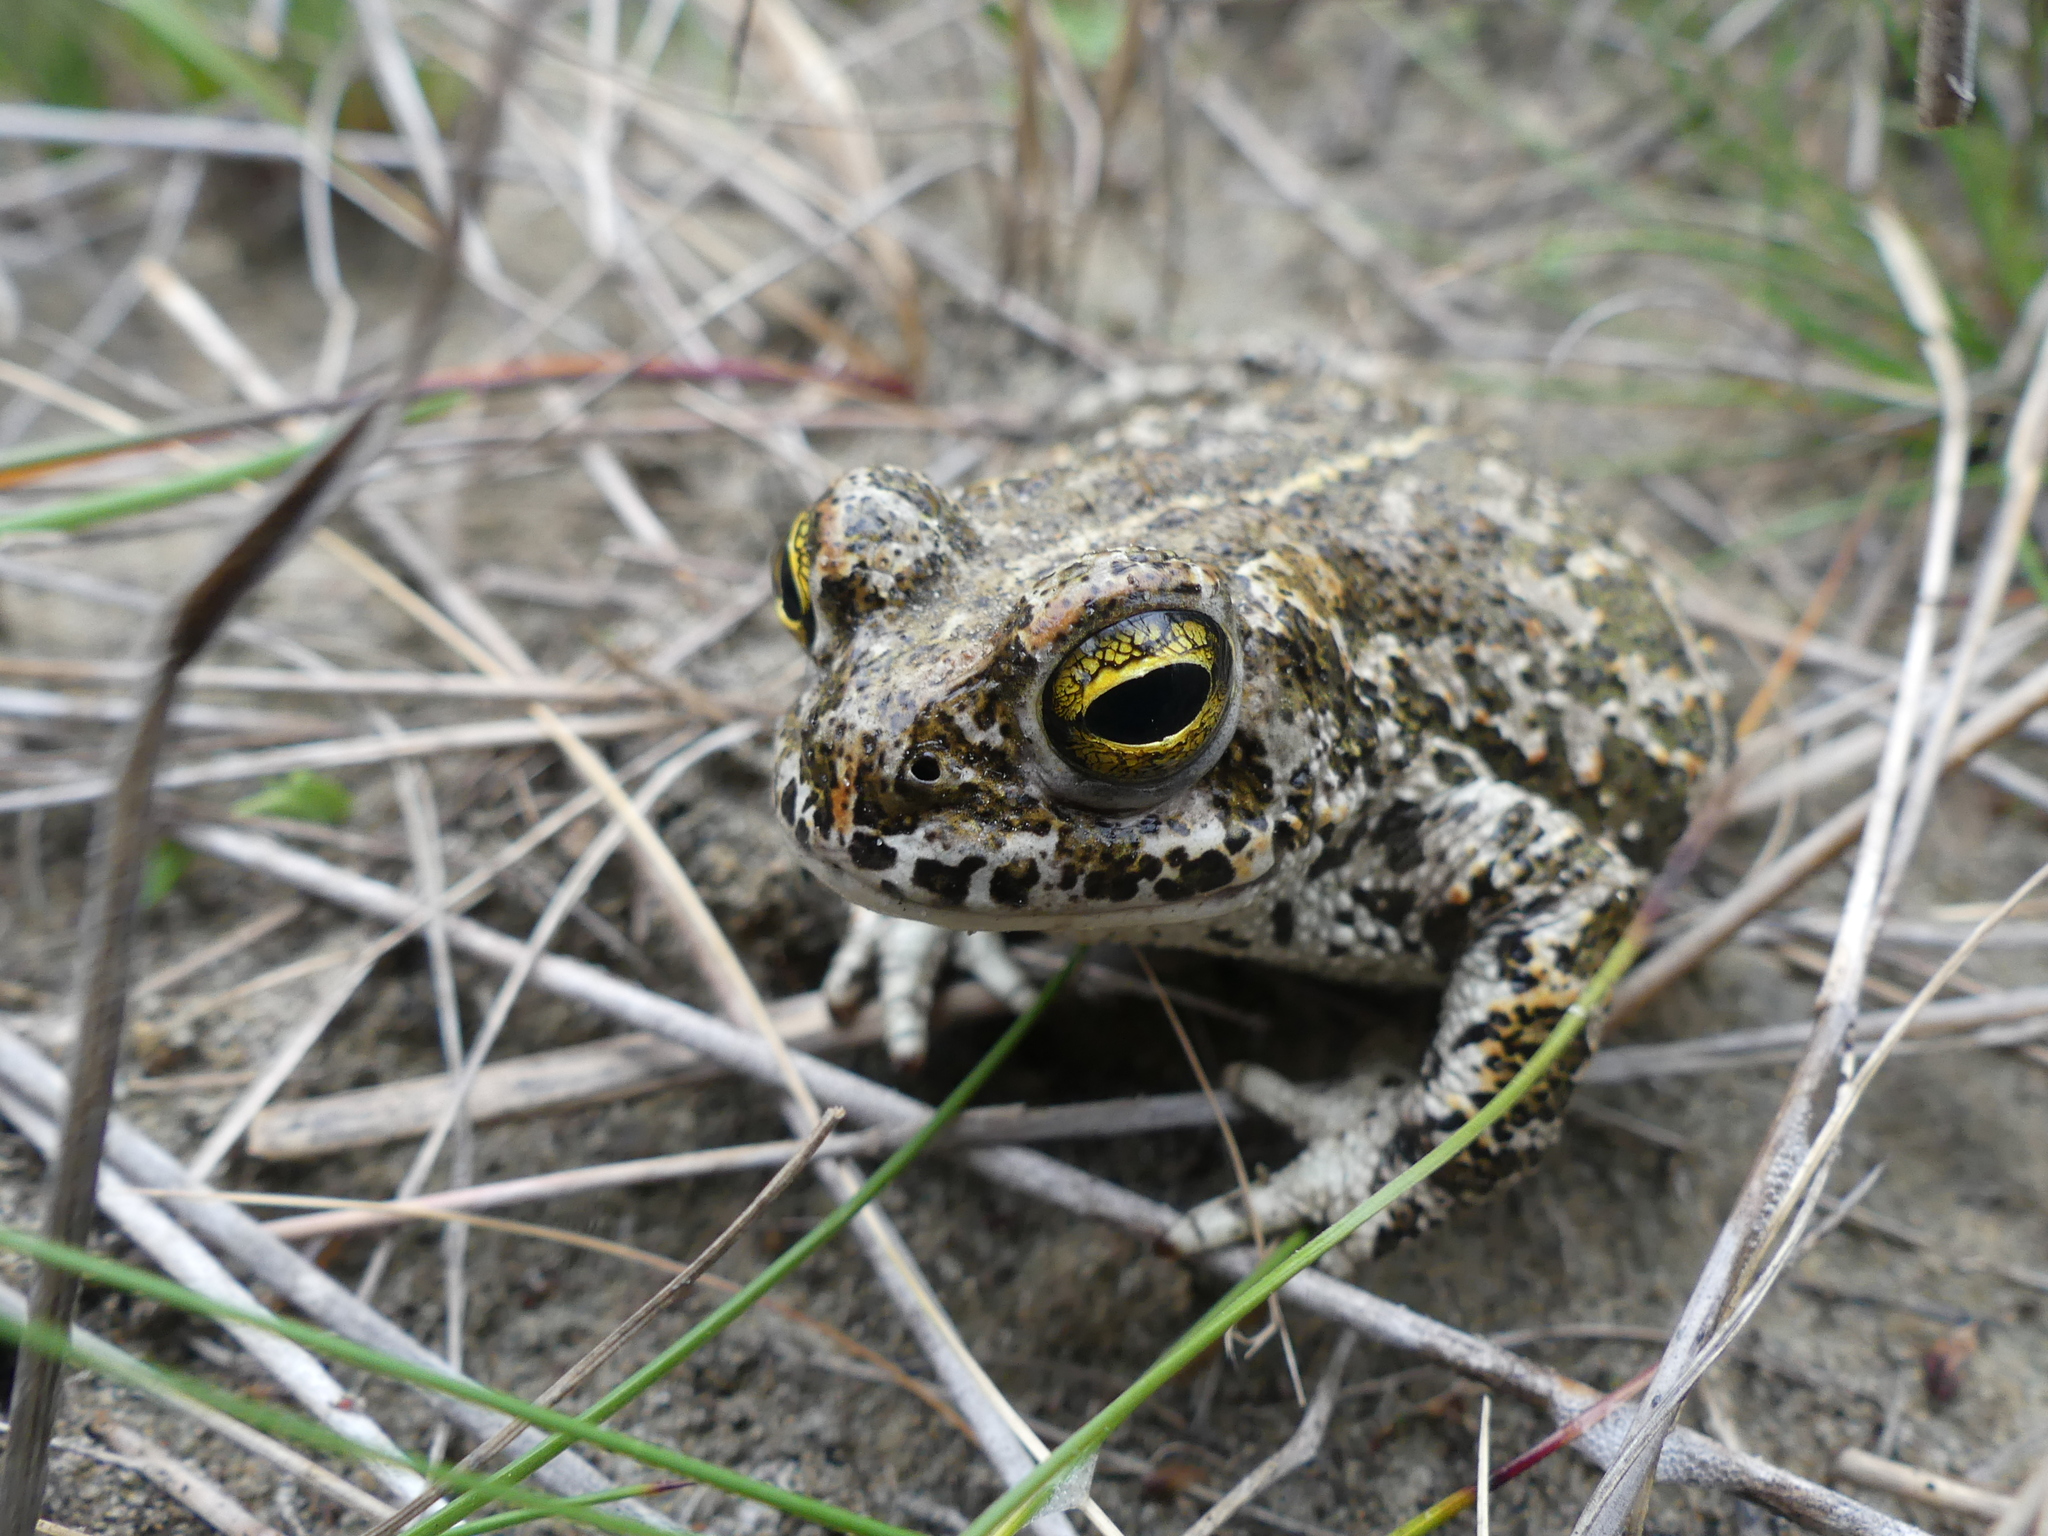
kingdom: Animalia
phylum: Chordata
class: Amphibia
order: Anura
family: Bufonidae
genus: Epidalea
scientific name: Epidalea calamita
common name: Natterjack toad
